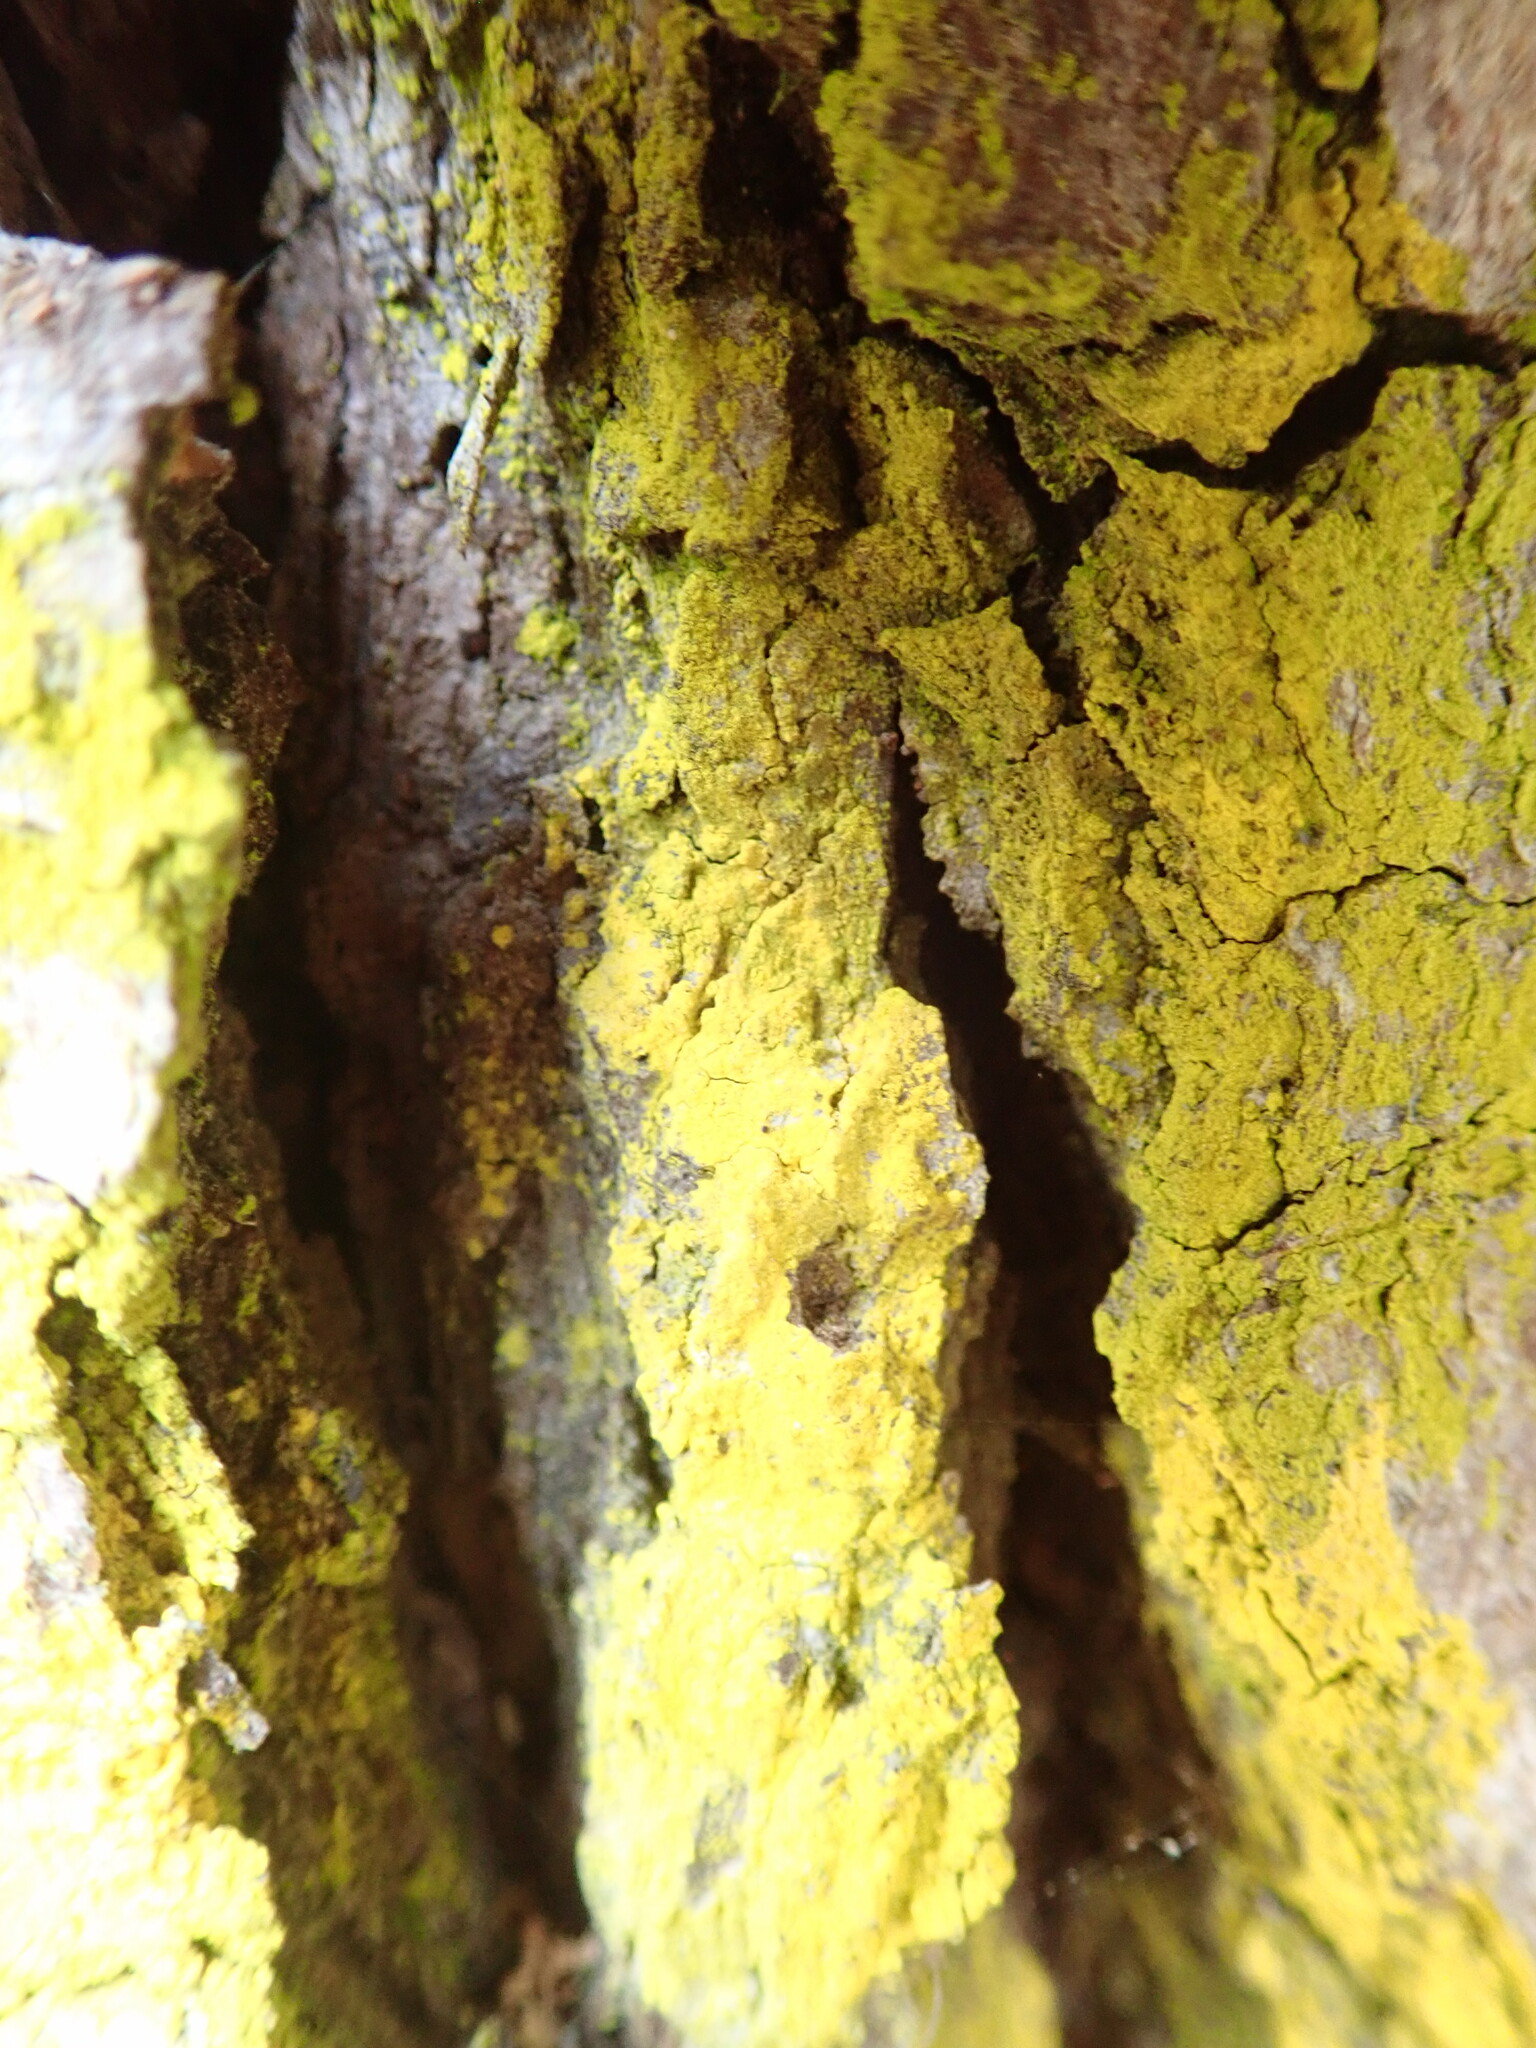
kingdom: Fungi
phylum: Ascomycota
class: Arthoniomycetes
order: Arthoniales
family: Chrysotrichaceae
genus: Chrysothrix
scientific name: Chrysothrix candelaris
